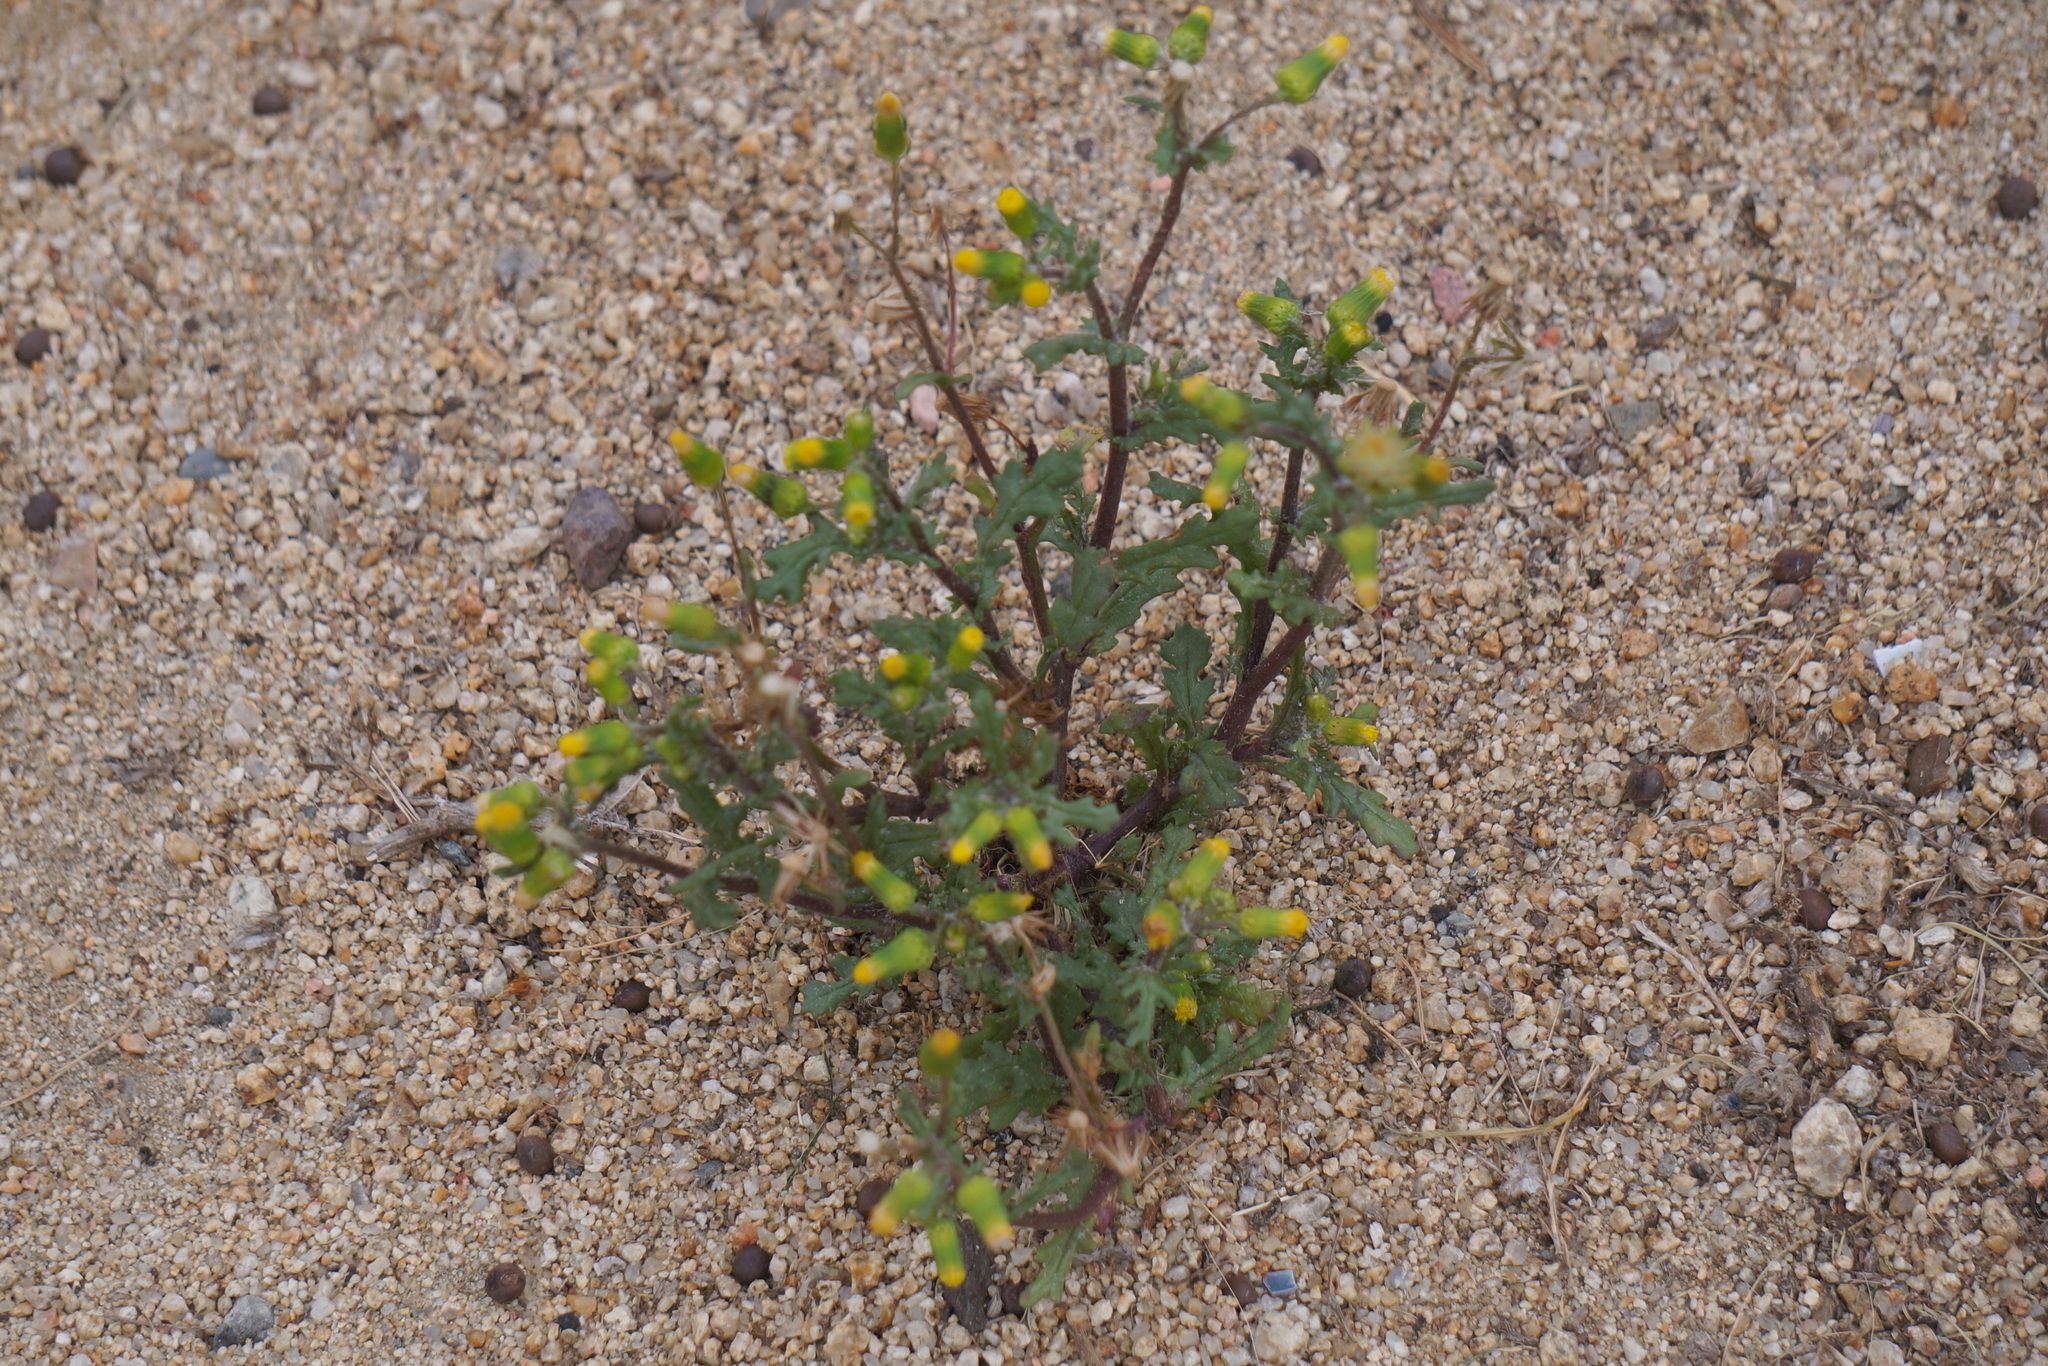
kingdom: Plantae
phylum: Tracheophyta
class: Magnoliopsida
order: Asterales
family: Asteraceae
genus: Senecio
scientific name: Senecio vulgaris
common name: Old-man-in-the-spring
